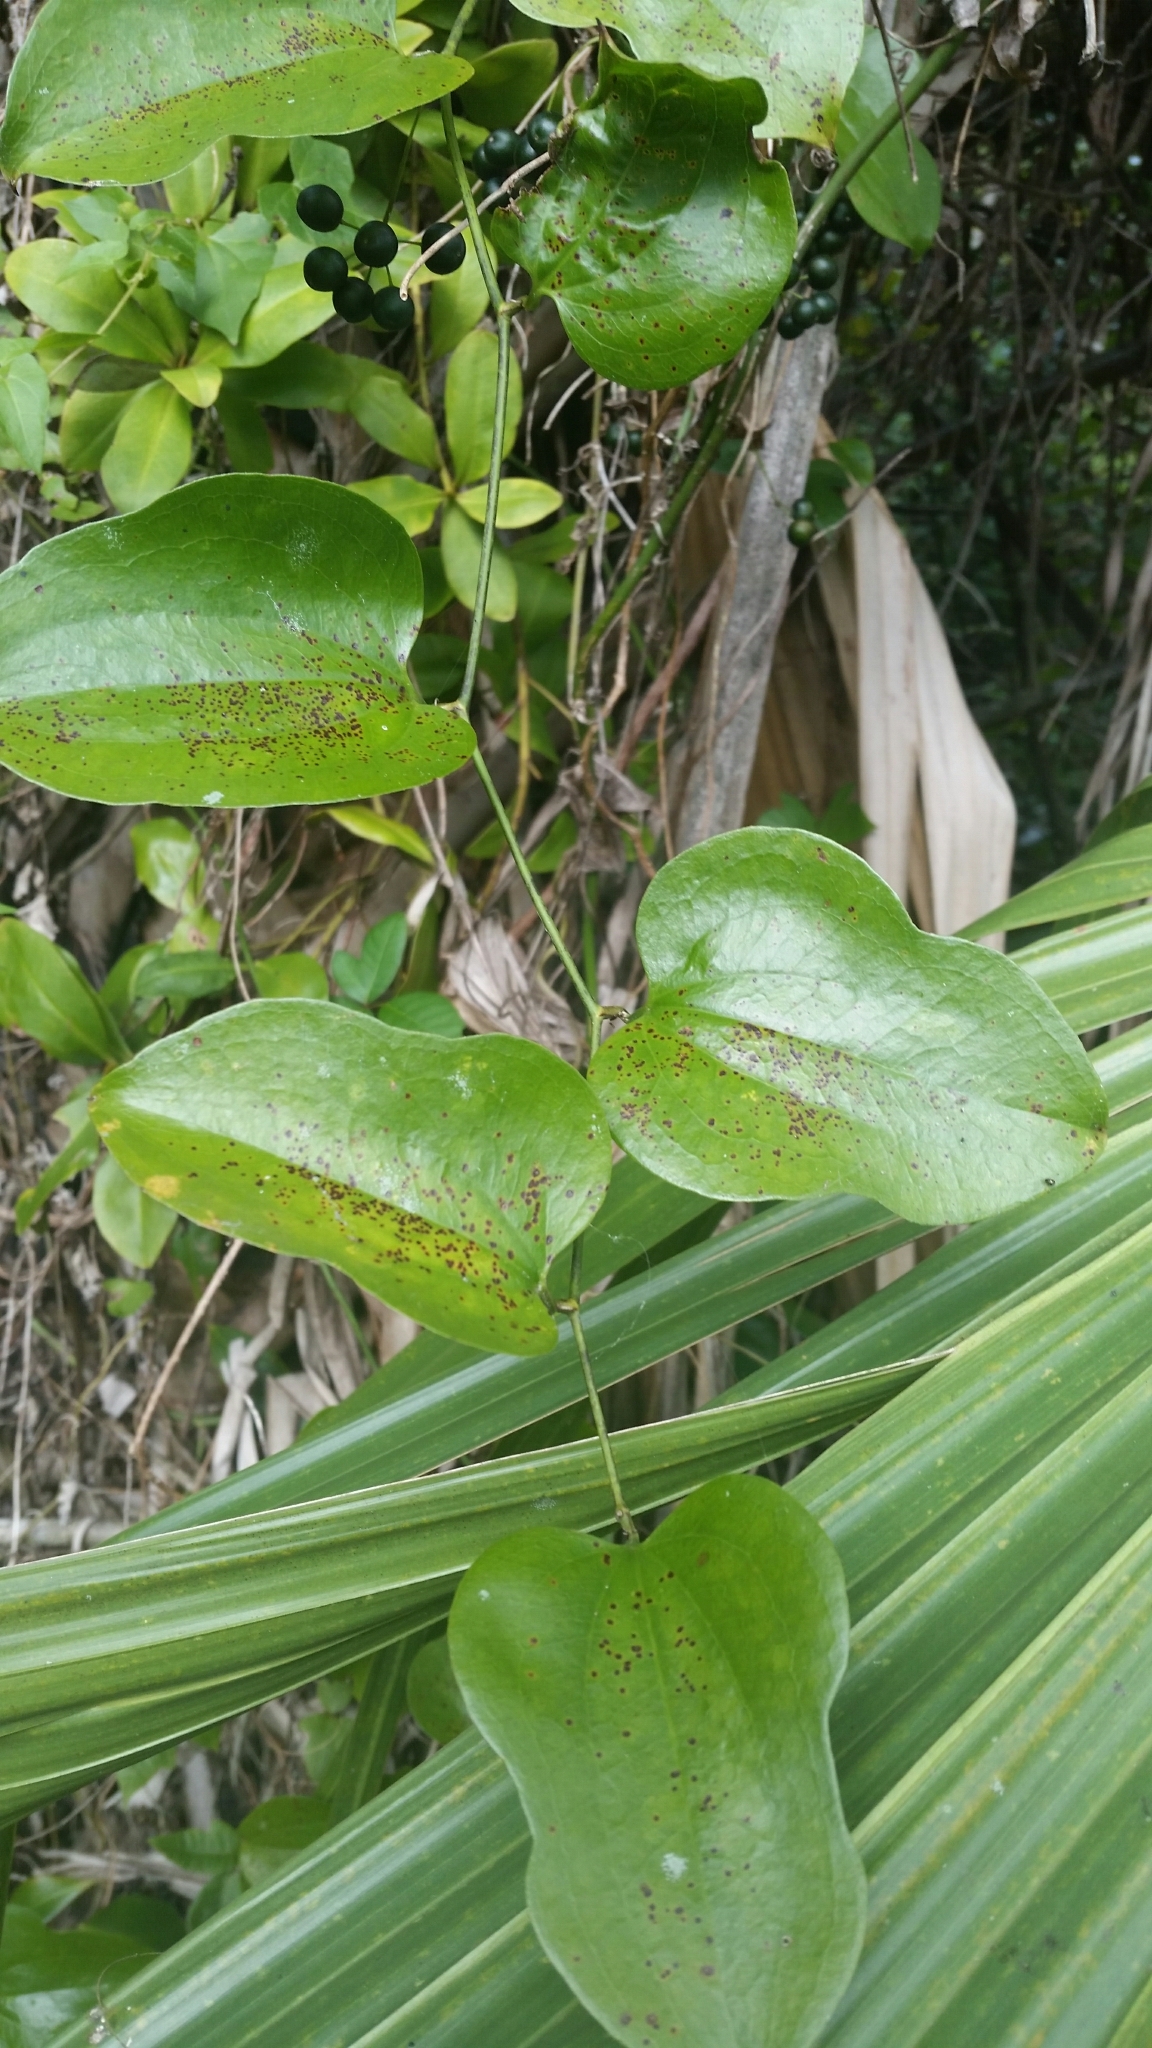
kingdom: Plantae
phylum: Tracheophyta
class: Liliopsida
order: Liliales
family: Smilacaceae
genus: Smilax
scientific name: Smilax tamnoides
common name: Hellfetter
